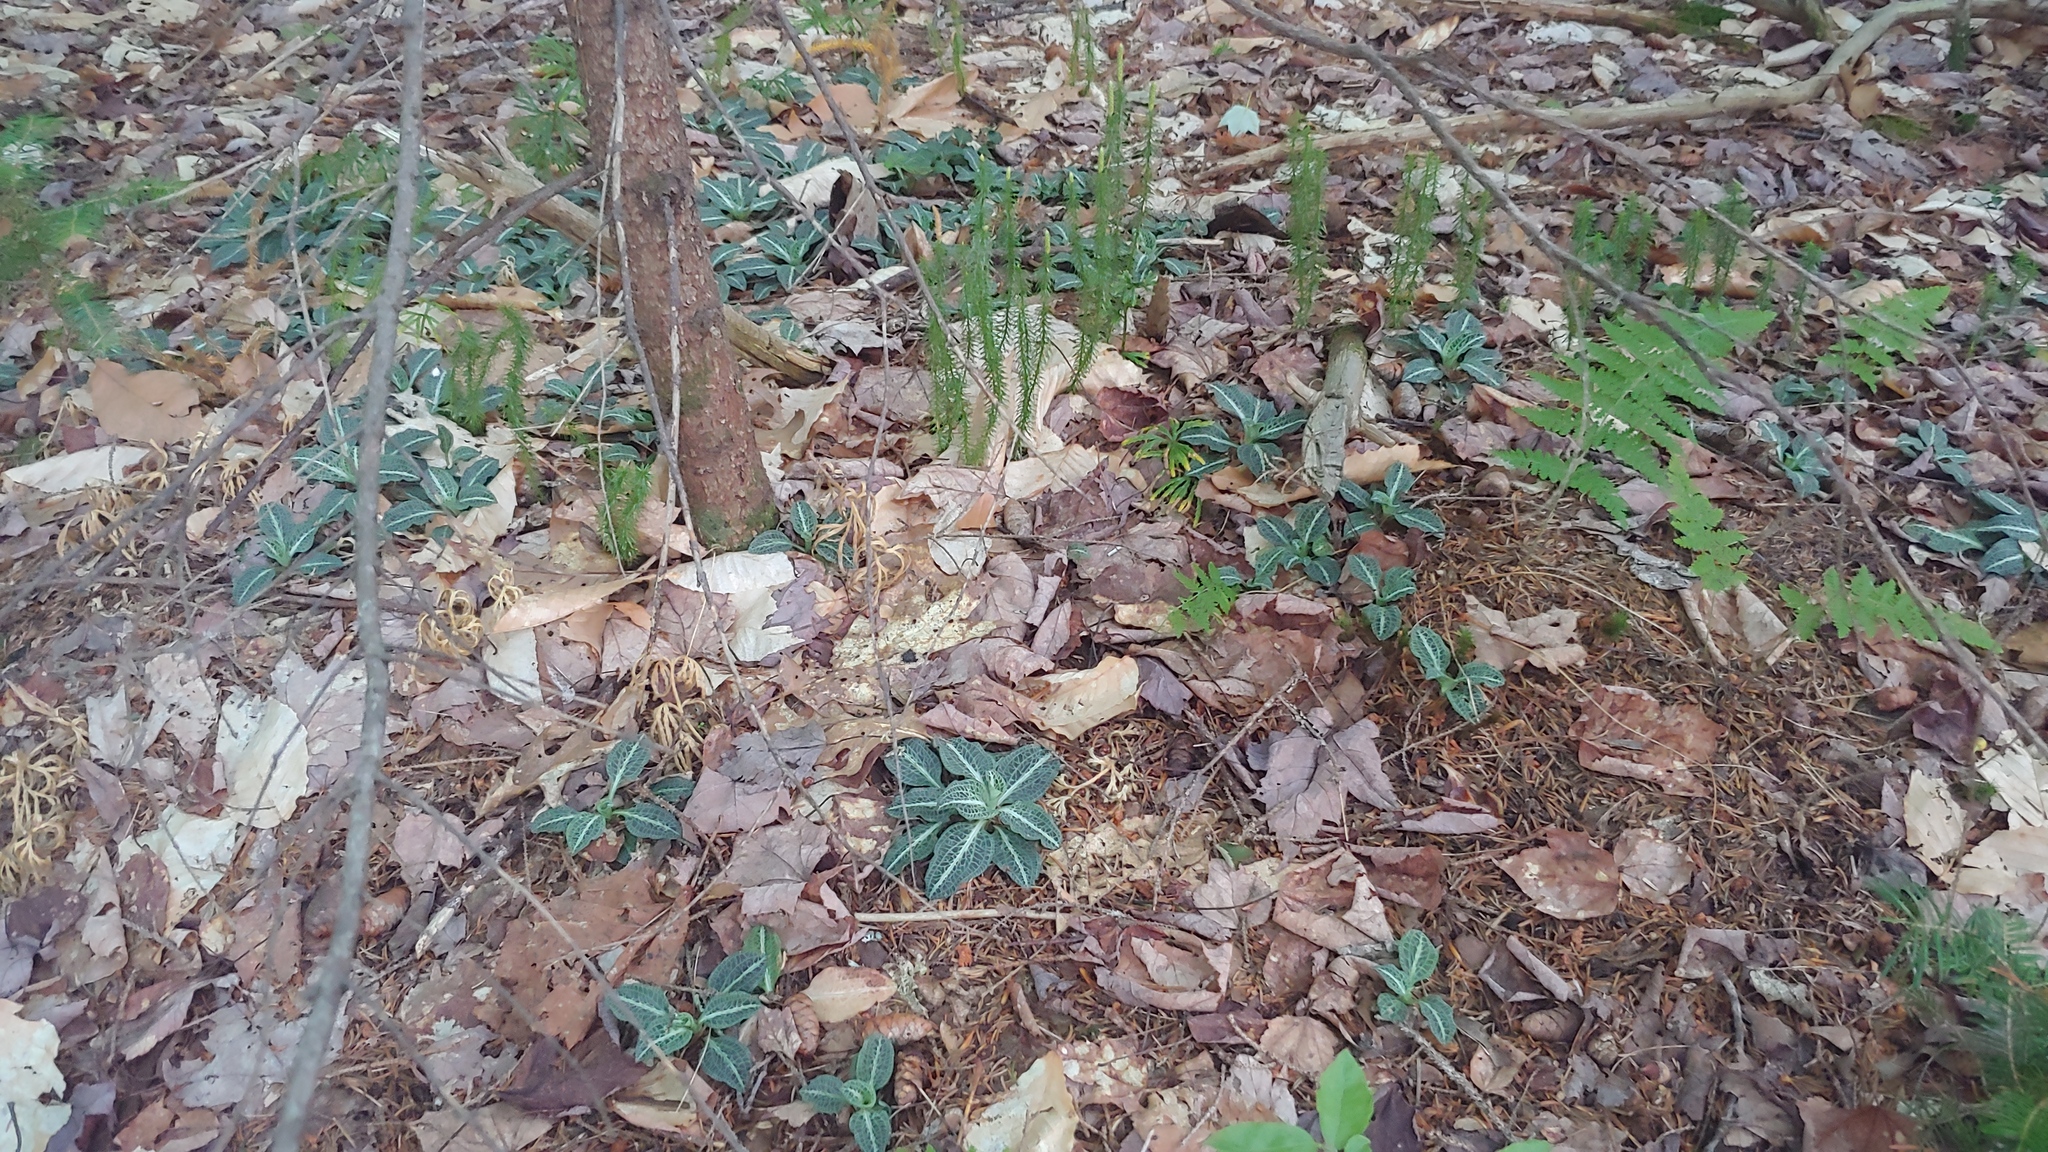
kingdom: Plantae
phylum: Tracheophyta
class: Liliopsida
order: Asparagales
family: Orchidaceae
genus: Goodyera
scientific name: Goodyera pubescens
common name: Downy rattlesnake-plantain
